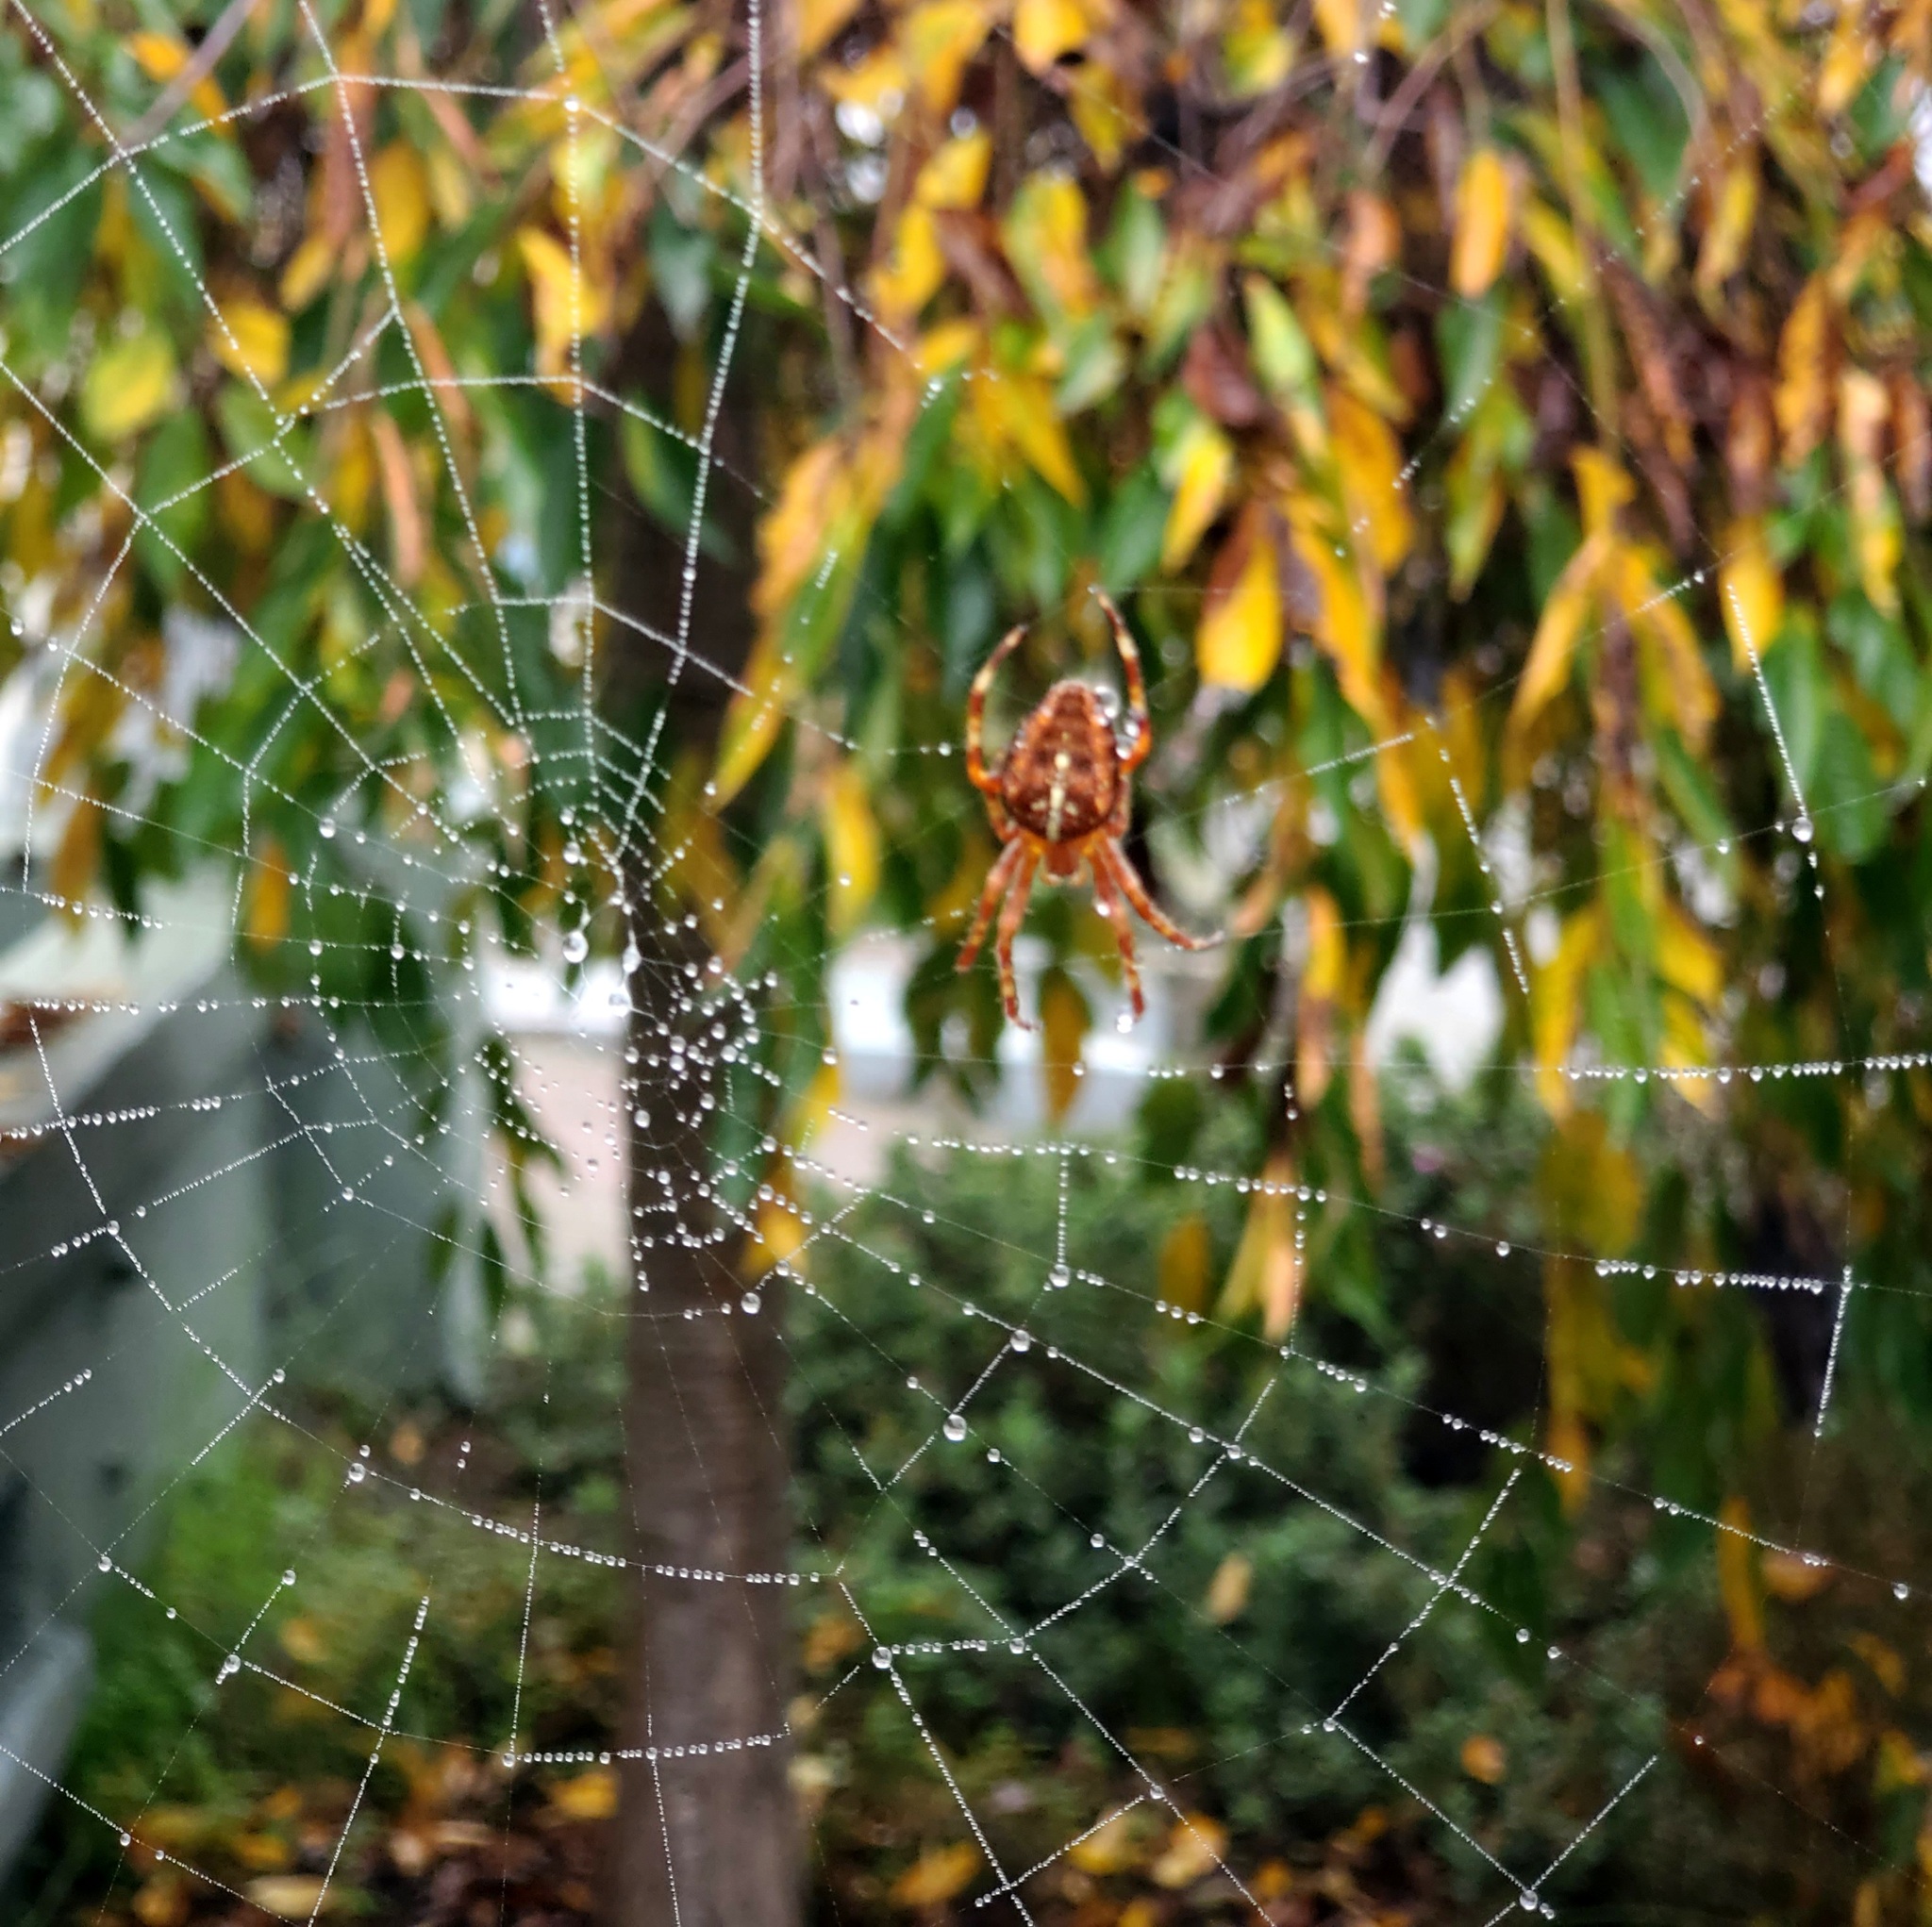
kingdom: Animalia
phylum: Arthropoda
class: Arachnida
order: Araneae
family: Araneidae
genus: Araneus
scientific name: Araneus diadematus
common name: Cross orbweaver
